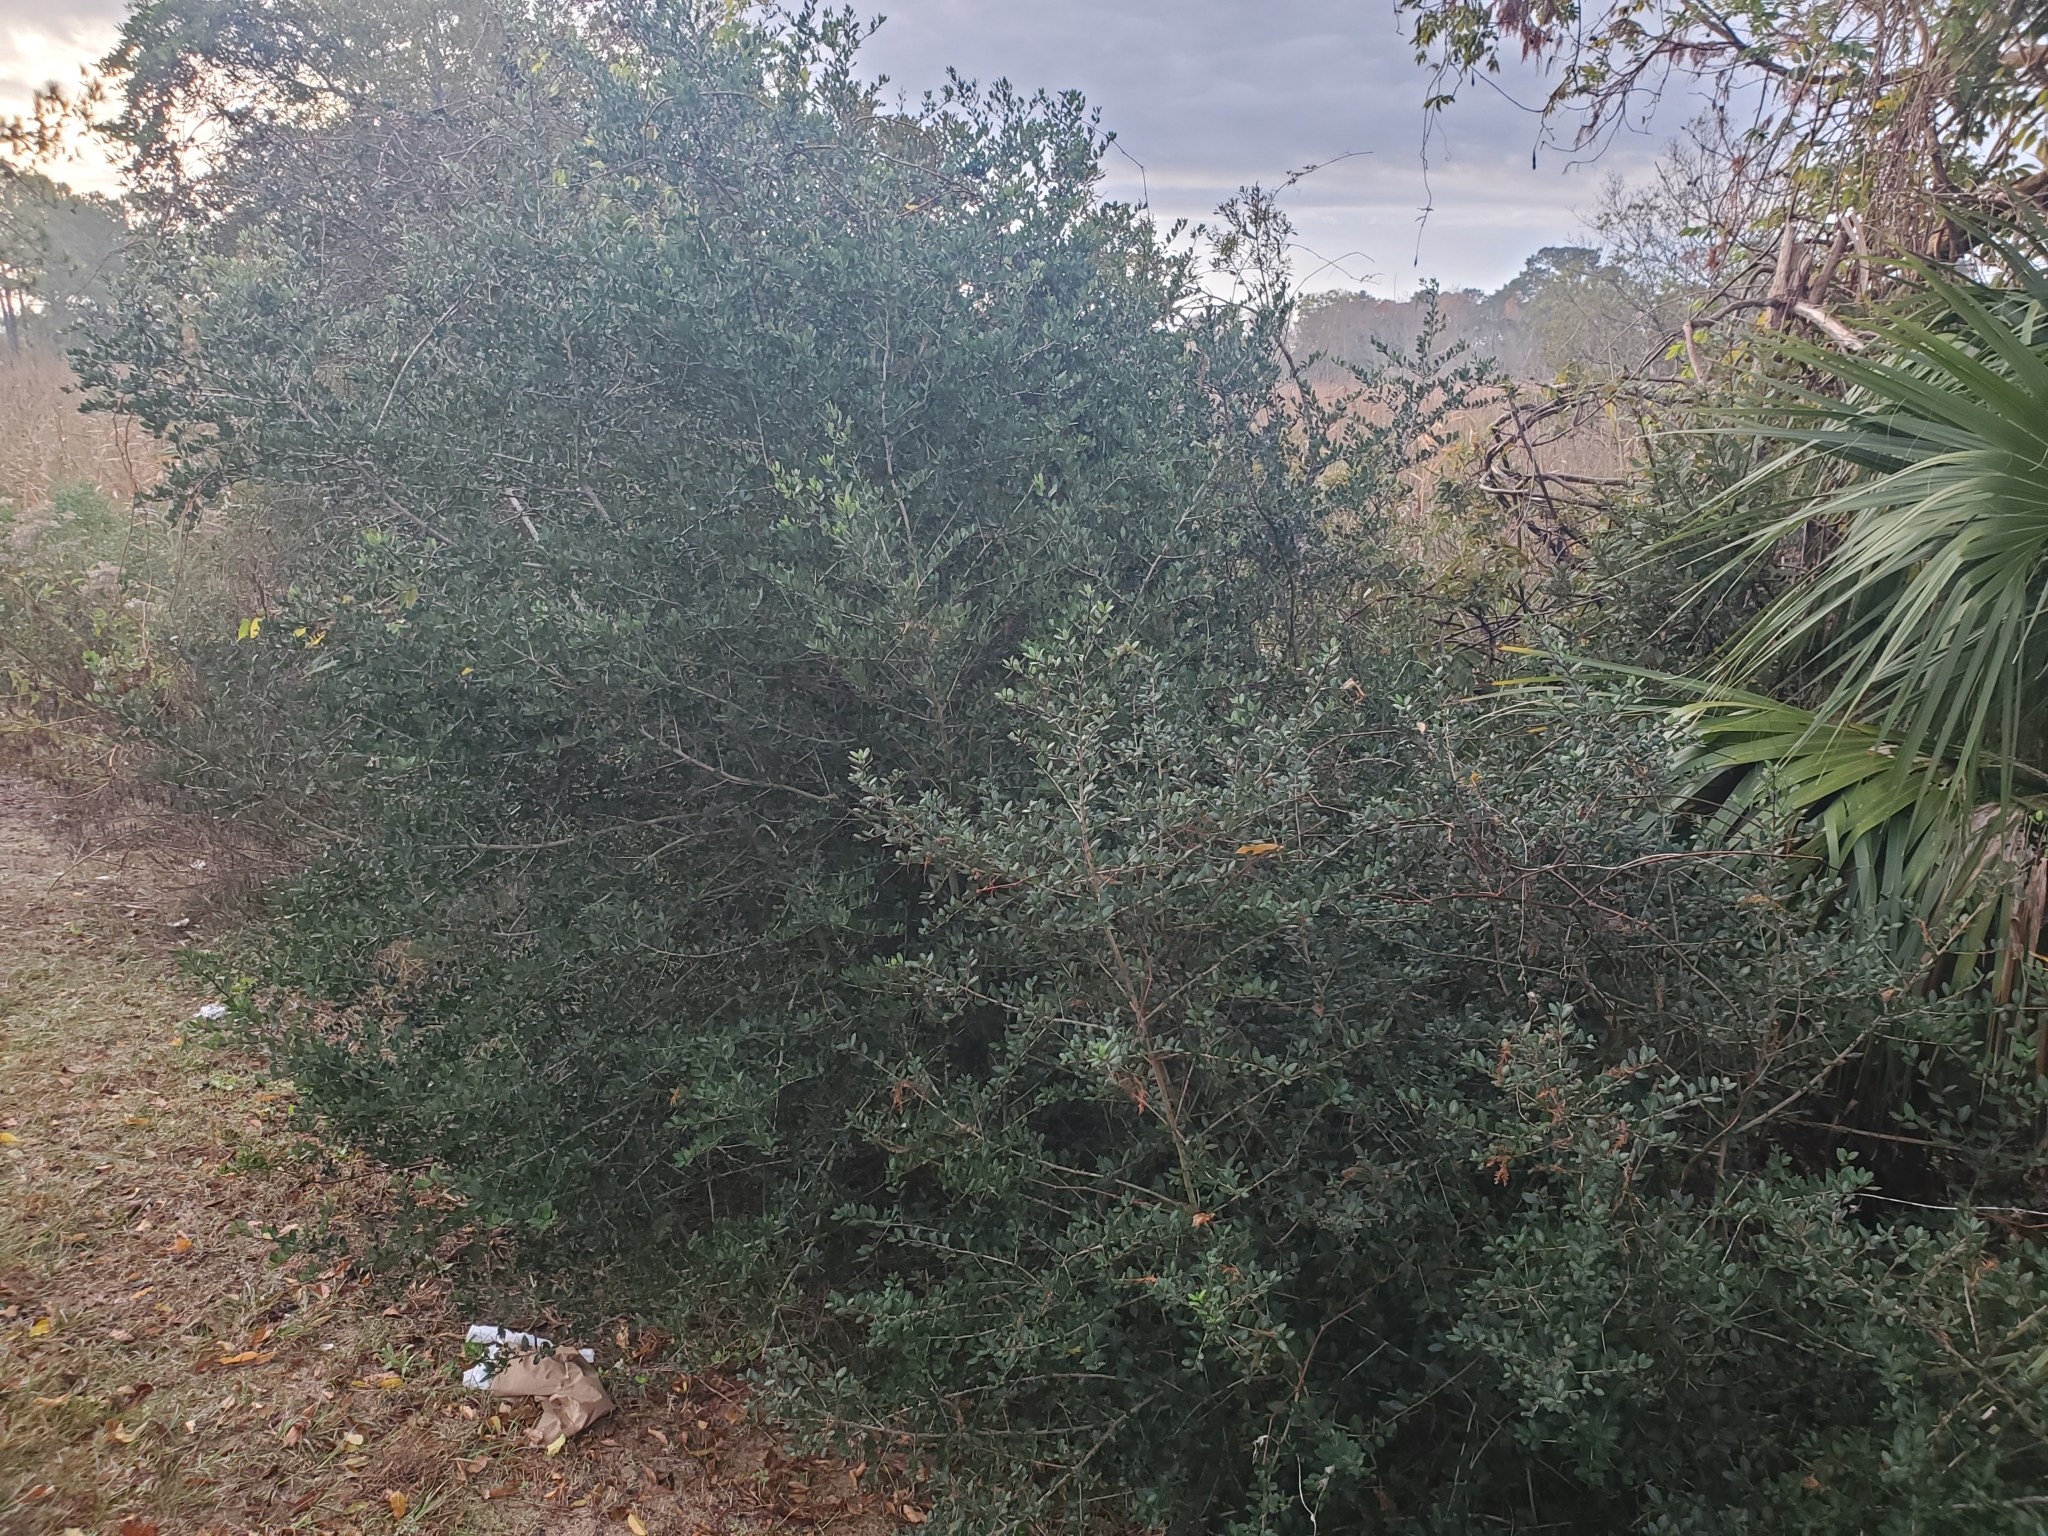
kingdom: Plantae
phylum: Tracheophyta
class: Magnoliopsida
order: Aquifoliales
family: Aquifoliaceae
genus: Ilex
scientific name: Ilex vomitoria
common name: Yaupon holly
